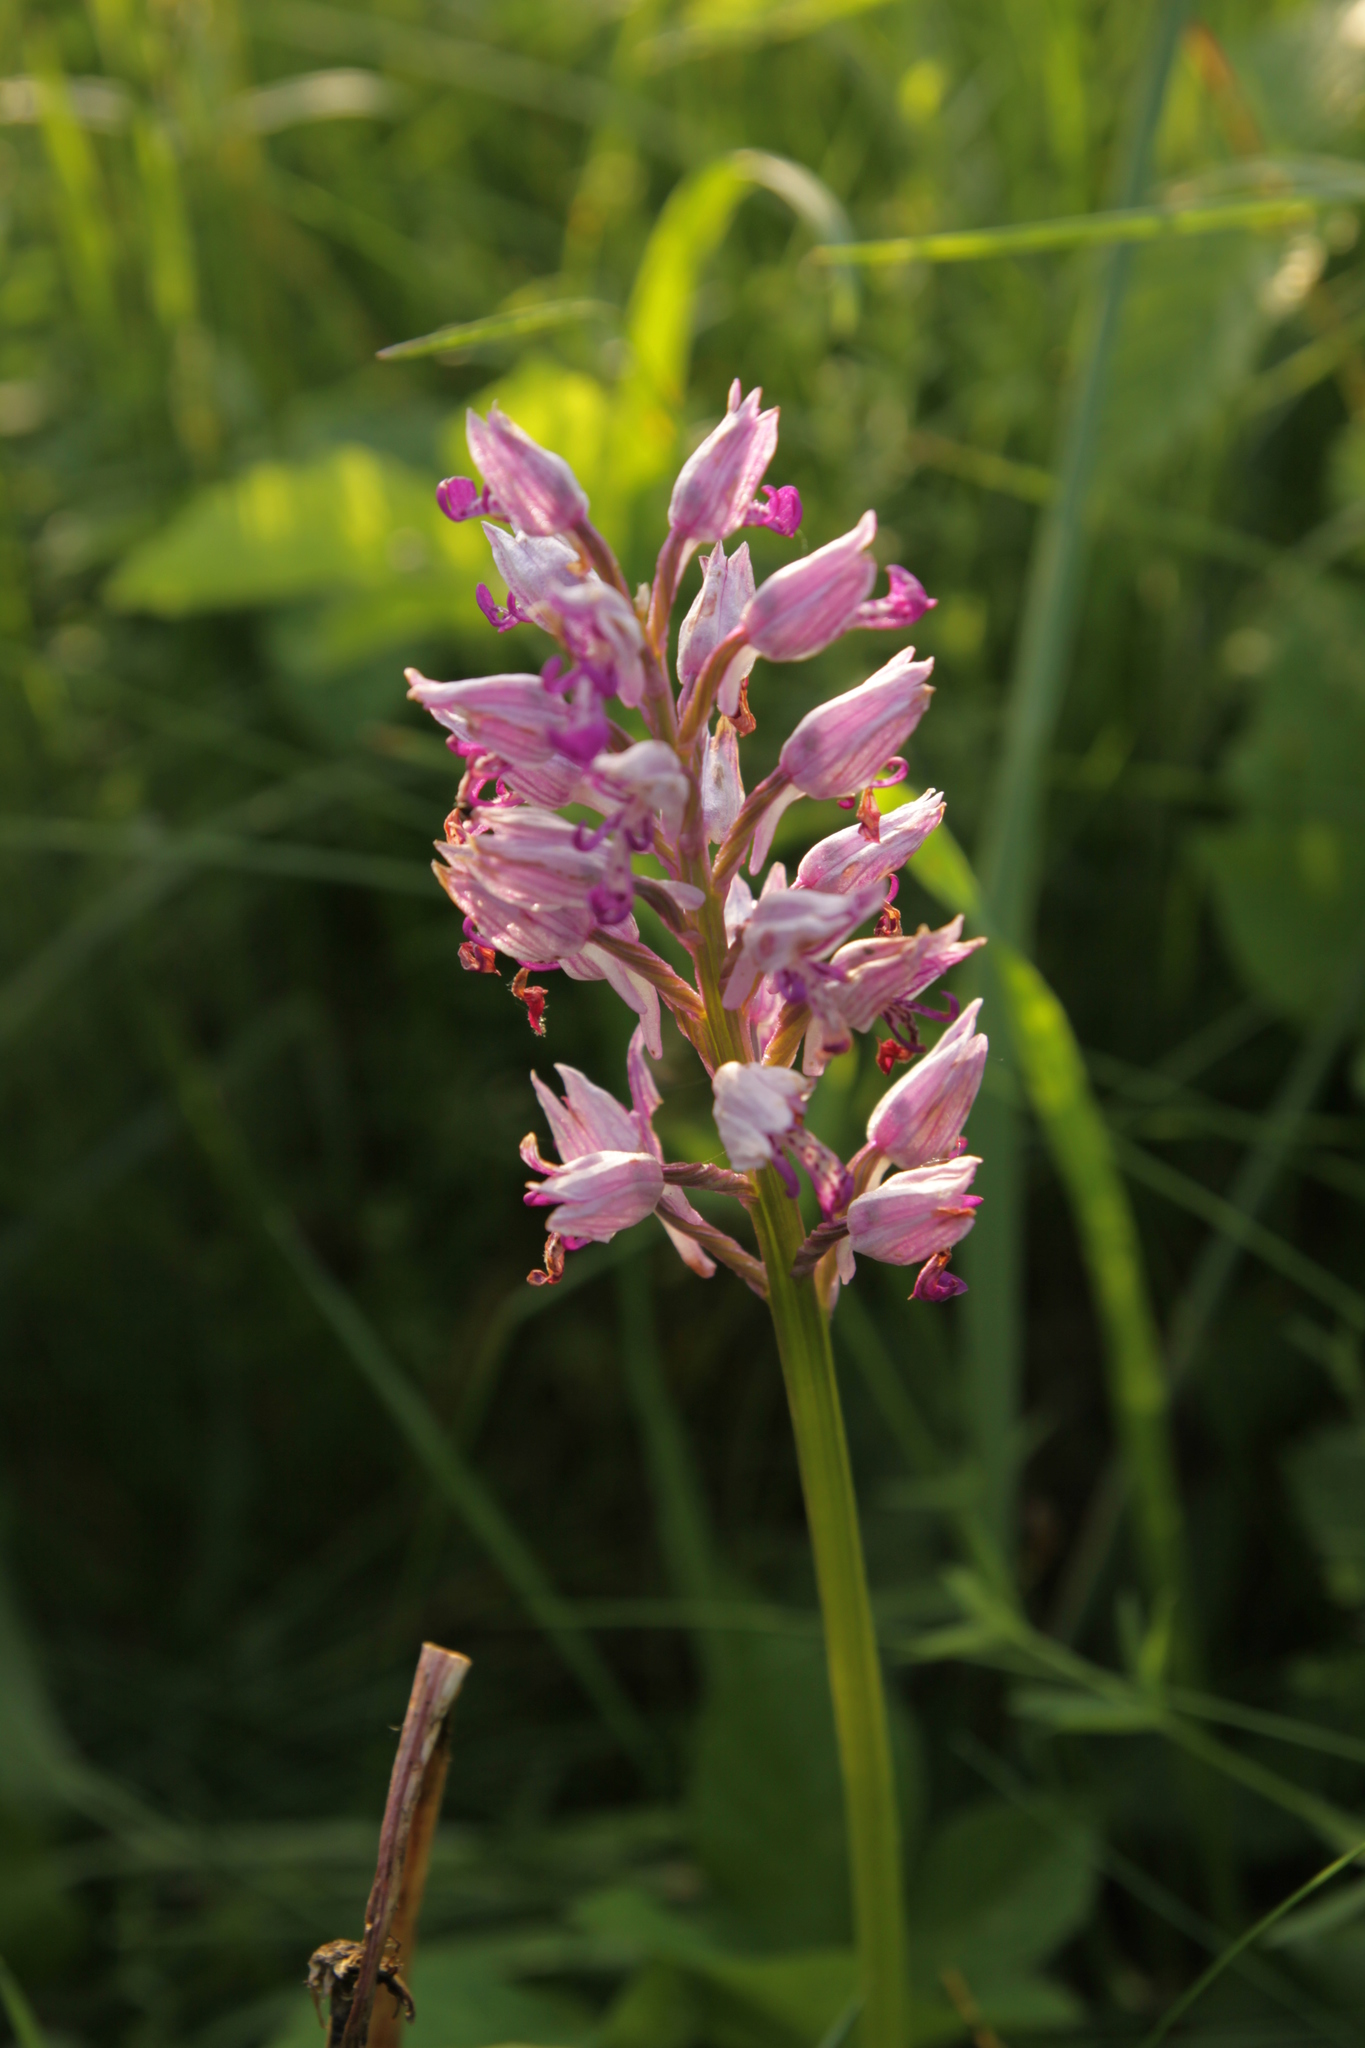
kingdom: Plantae
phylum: Tracheophyta
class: Liliopsida
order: Asparagales
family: Orchidaceae
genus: Orchis
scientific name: Orchis militaris
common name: Military orchid
